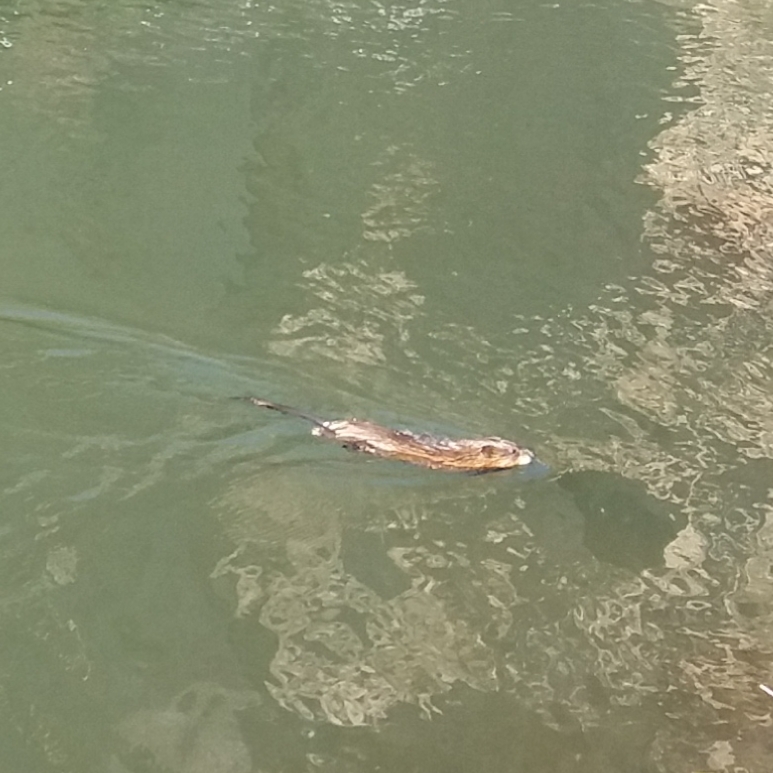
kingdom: Animalia
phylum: Chordata
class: Mammalia
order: Rodentia
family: Cricetidae
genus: Ondatra
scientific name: Ondatra zibethicus
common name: Muskrat
